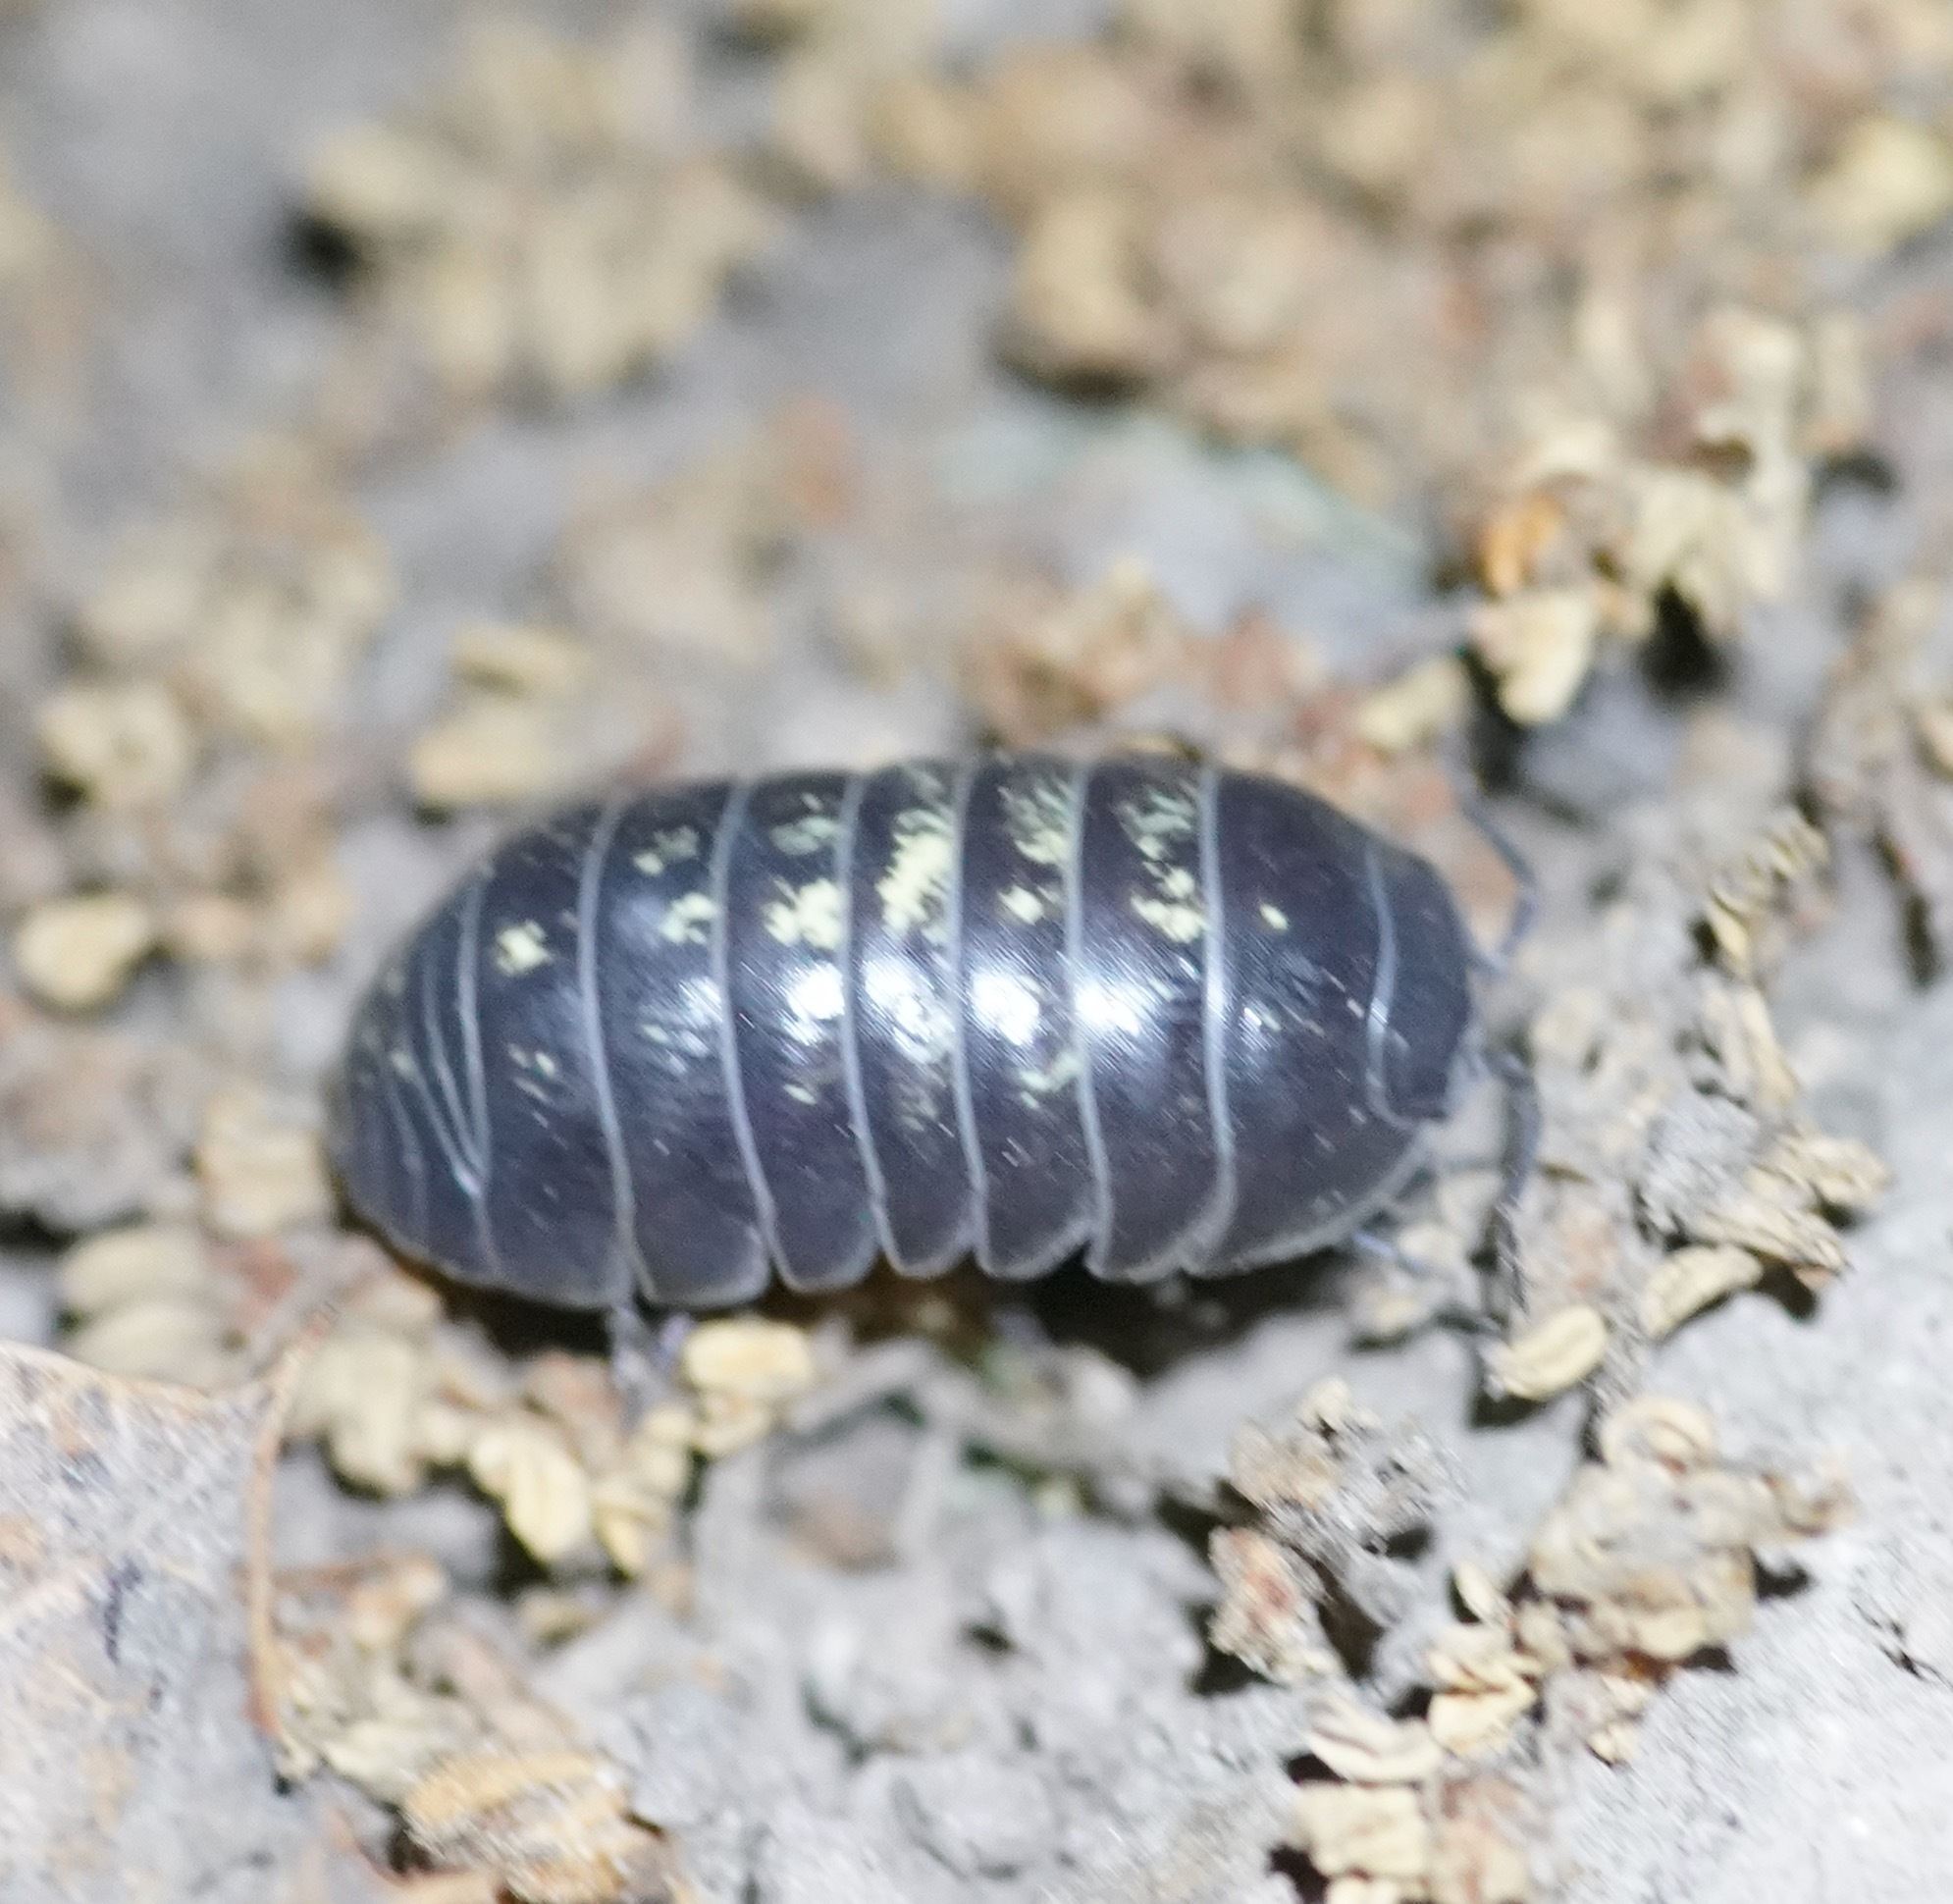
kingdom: Animalia
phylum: Arthropoda
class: Malacostraca
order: Isopoda
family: Armadillidiidae
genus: Armadillidium
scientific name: Armadillidium vulgare
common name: Common pill woodlouse
